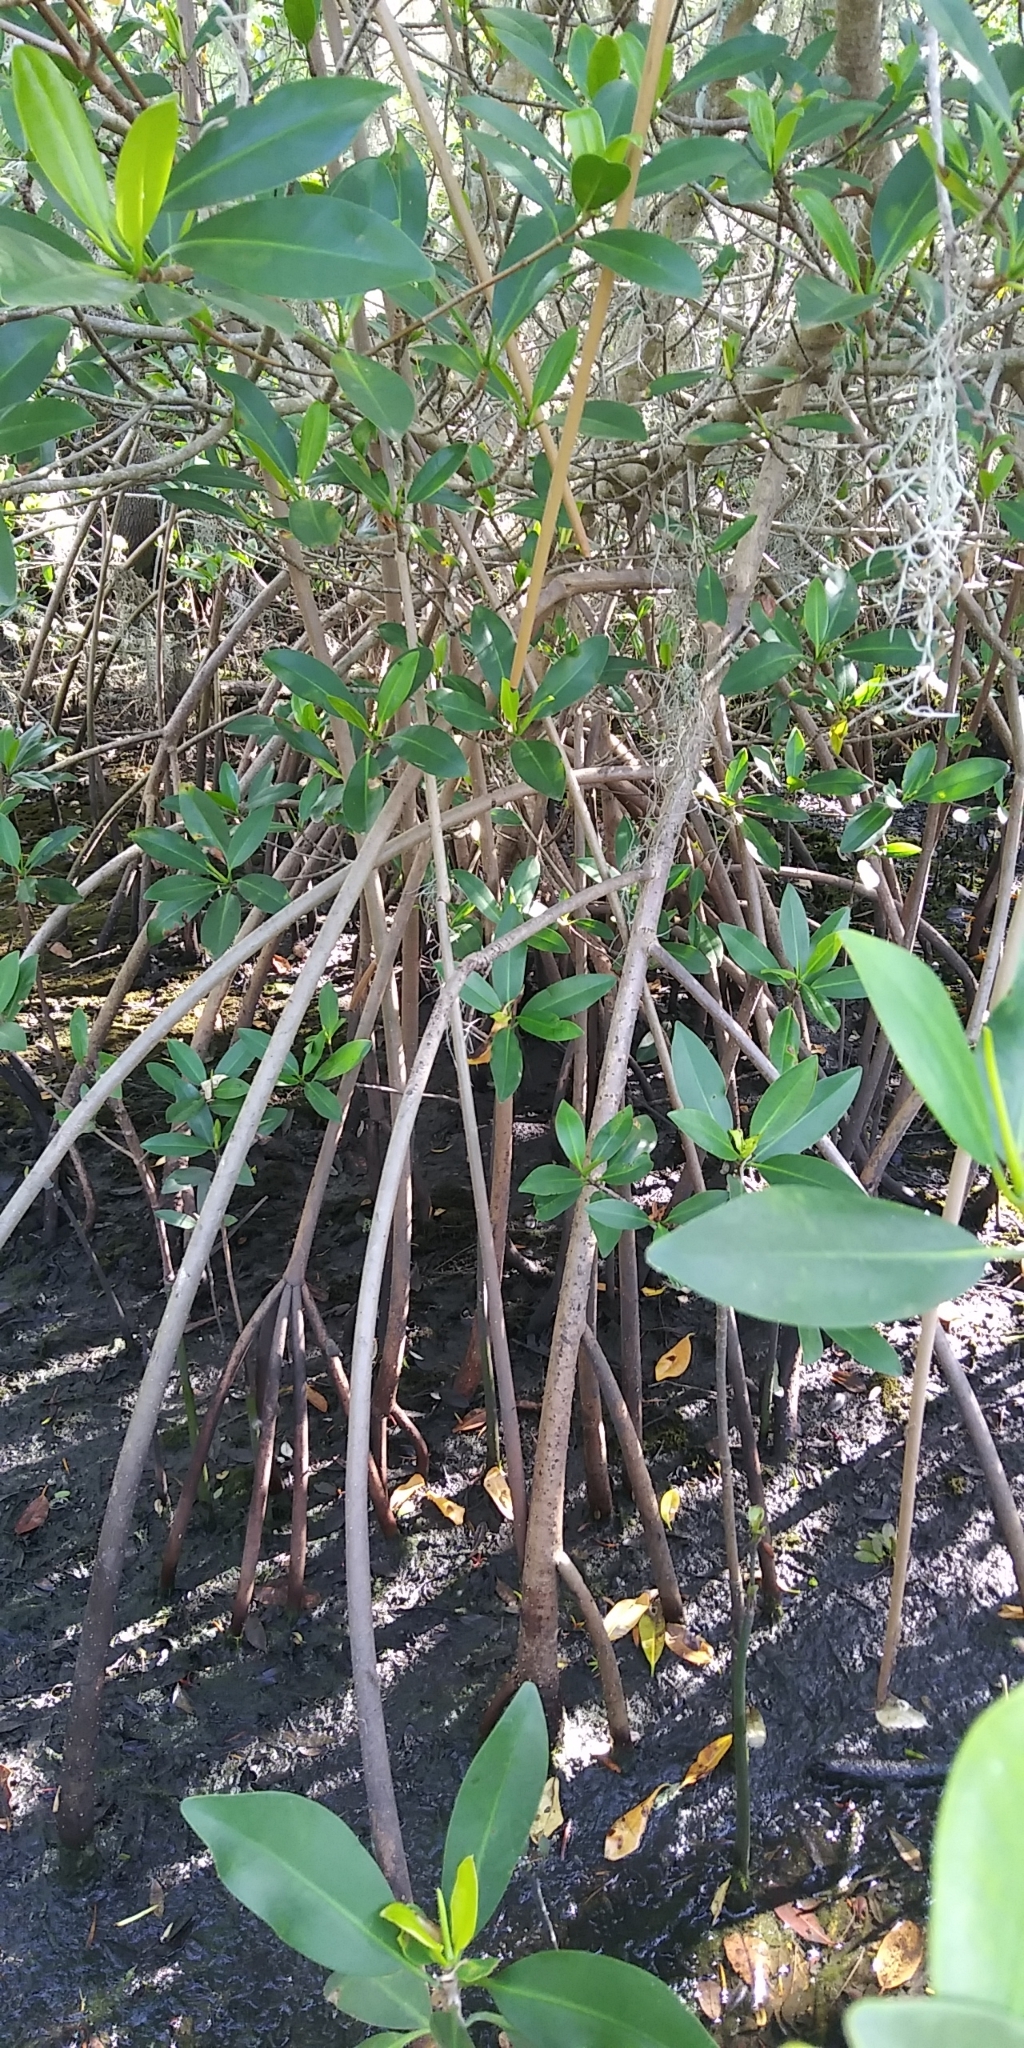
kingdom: Plantae
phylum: Tracheophyta
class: Magnoliopsida
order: Malpighiales
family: Rhizophoraceae
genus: Rhizophora
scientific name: Rhizophora mangle
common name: Red mangrove
